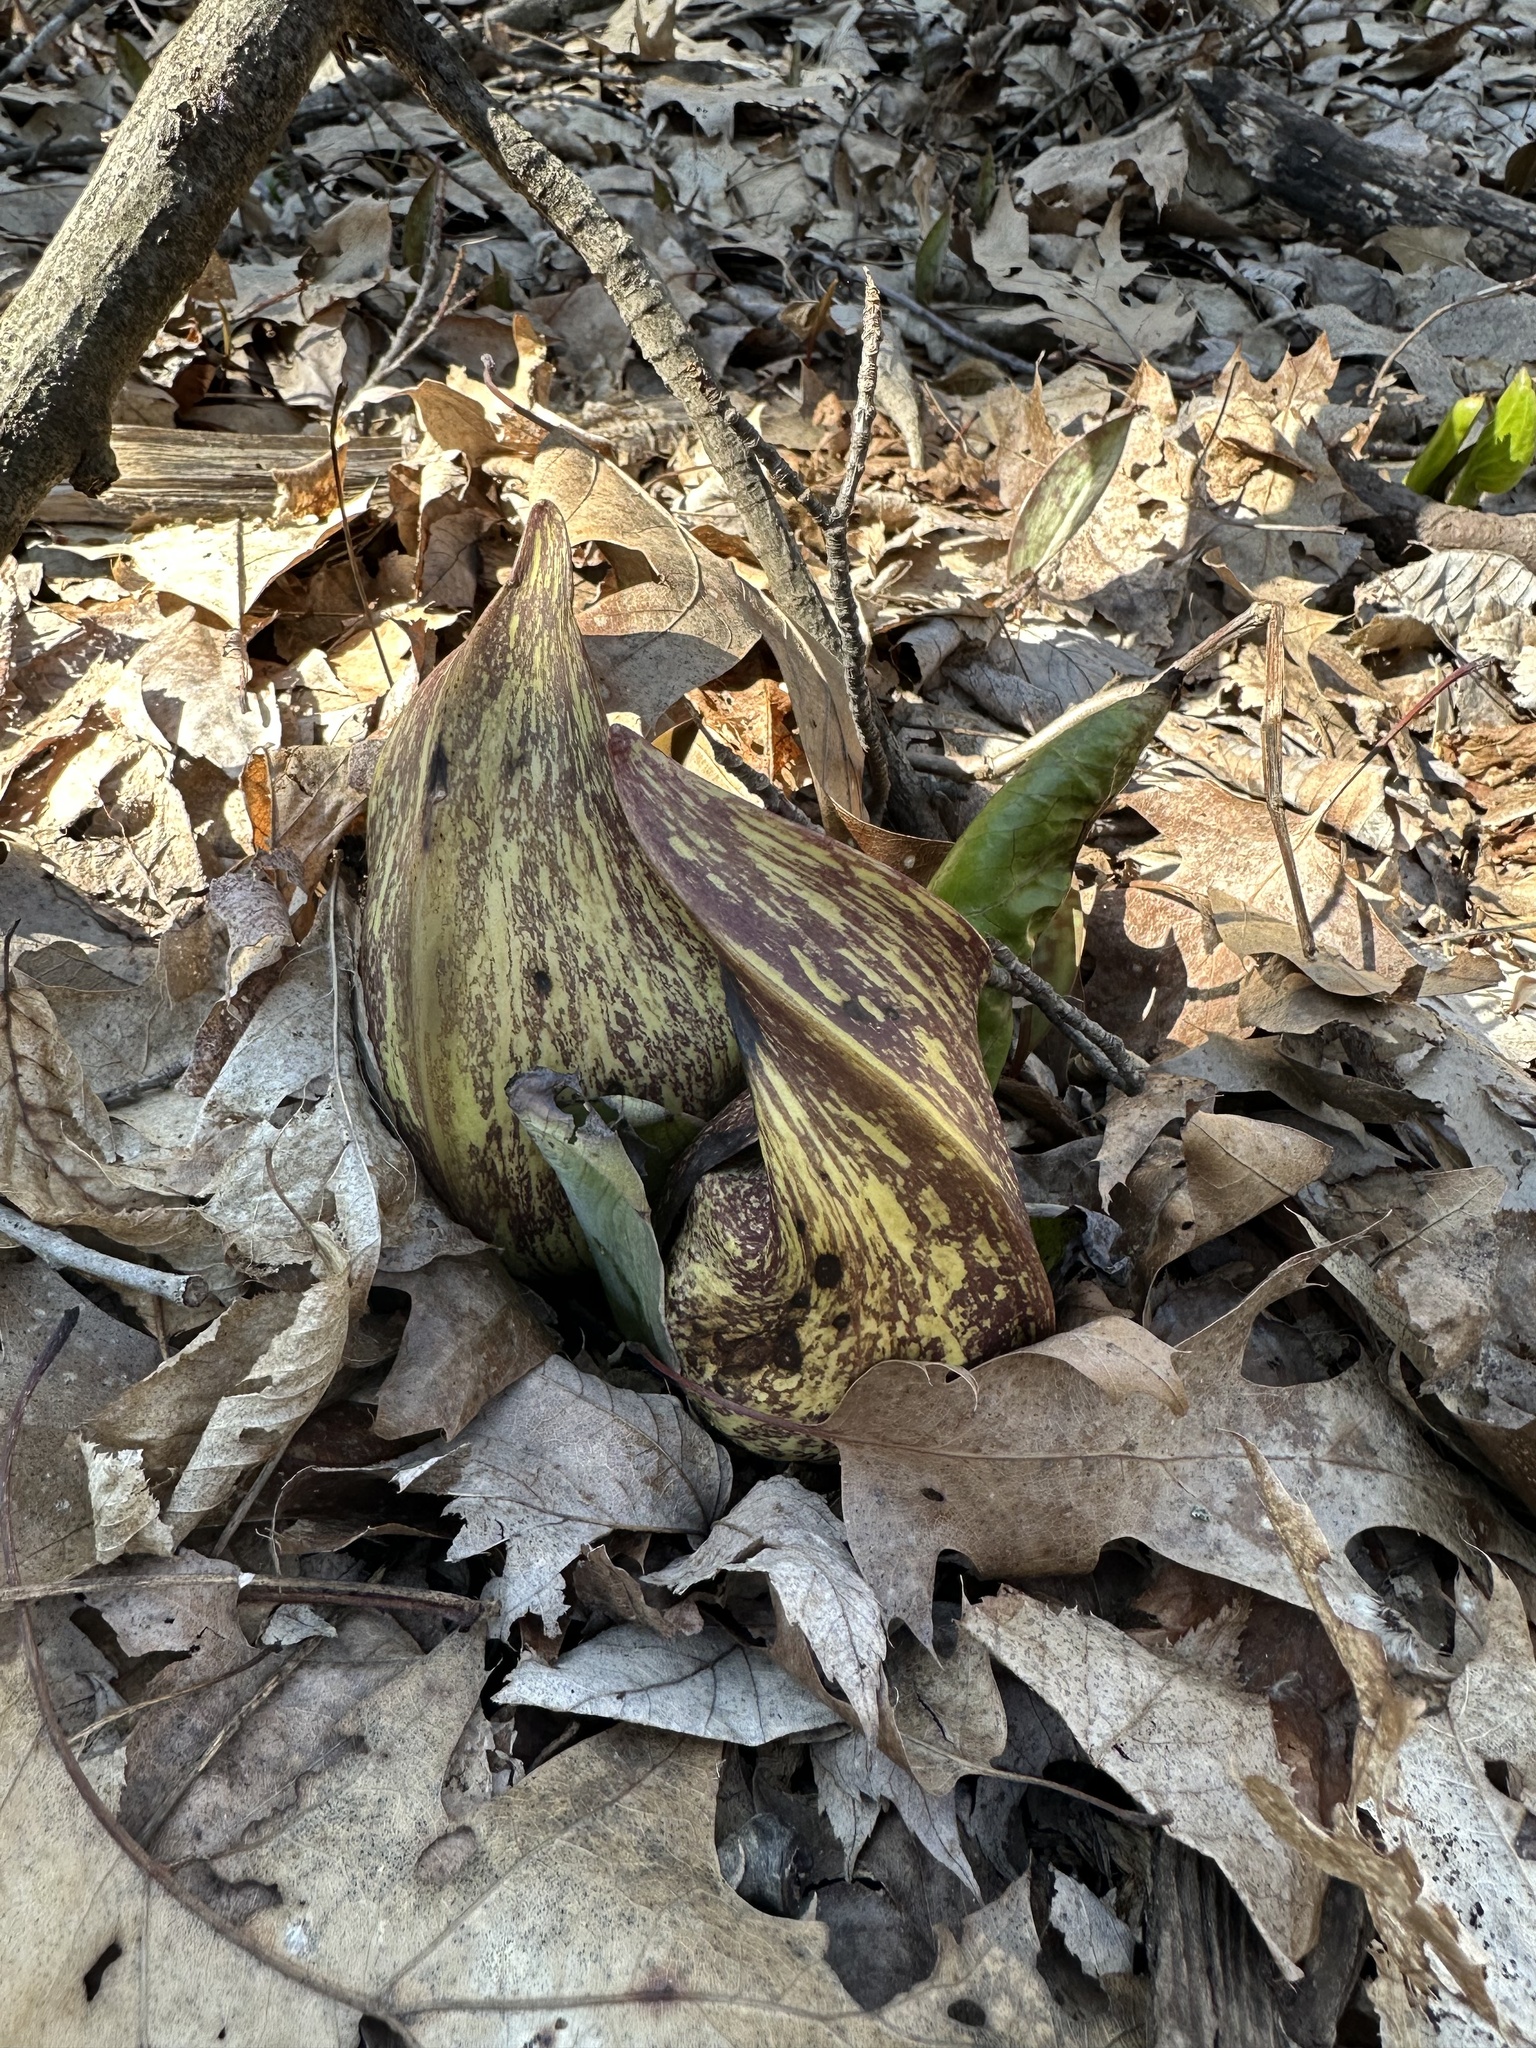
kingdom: Plantae
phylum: Tracheophyta
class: Liliopsida
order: Alismatales
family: Araceae
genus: Symplocarpus
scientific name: Symplocarpus foetidus
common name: Eastern skunk cabbage
